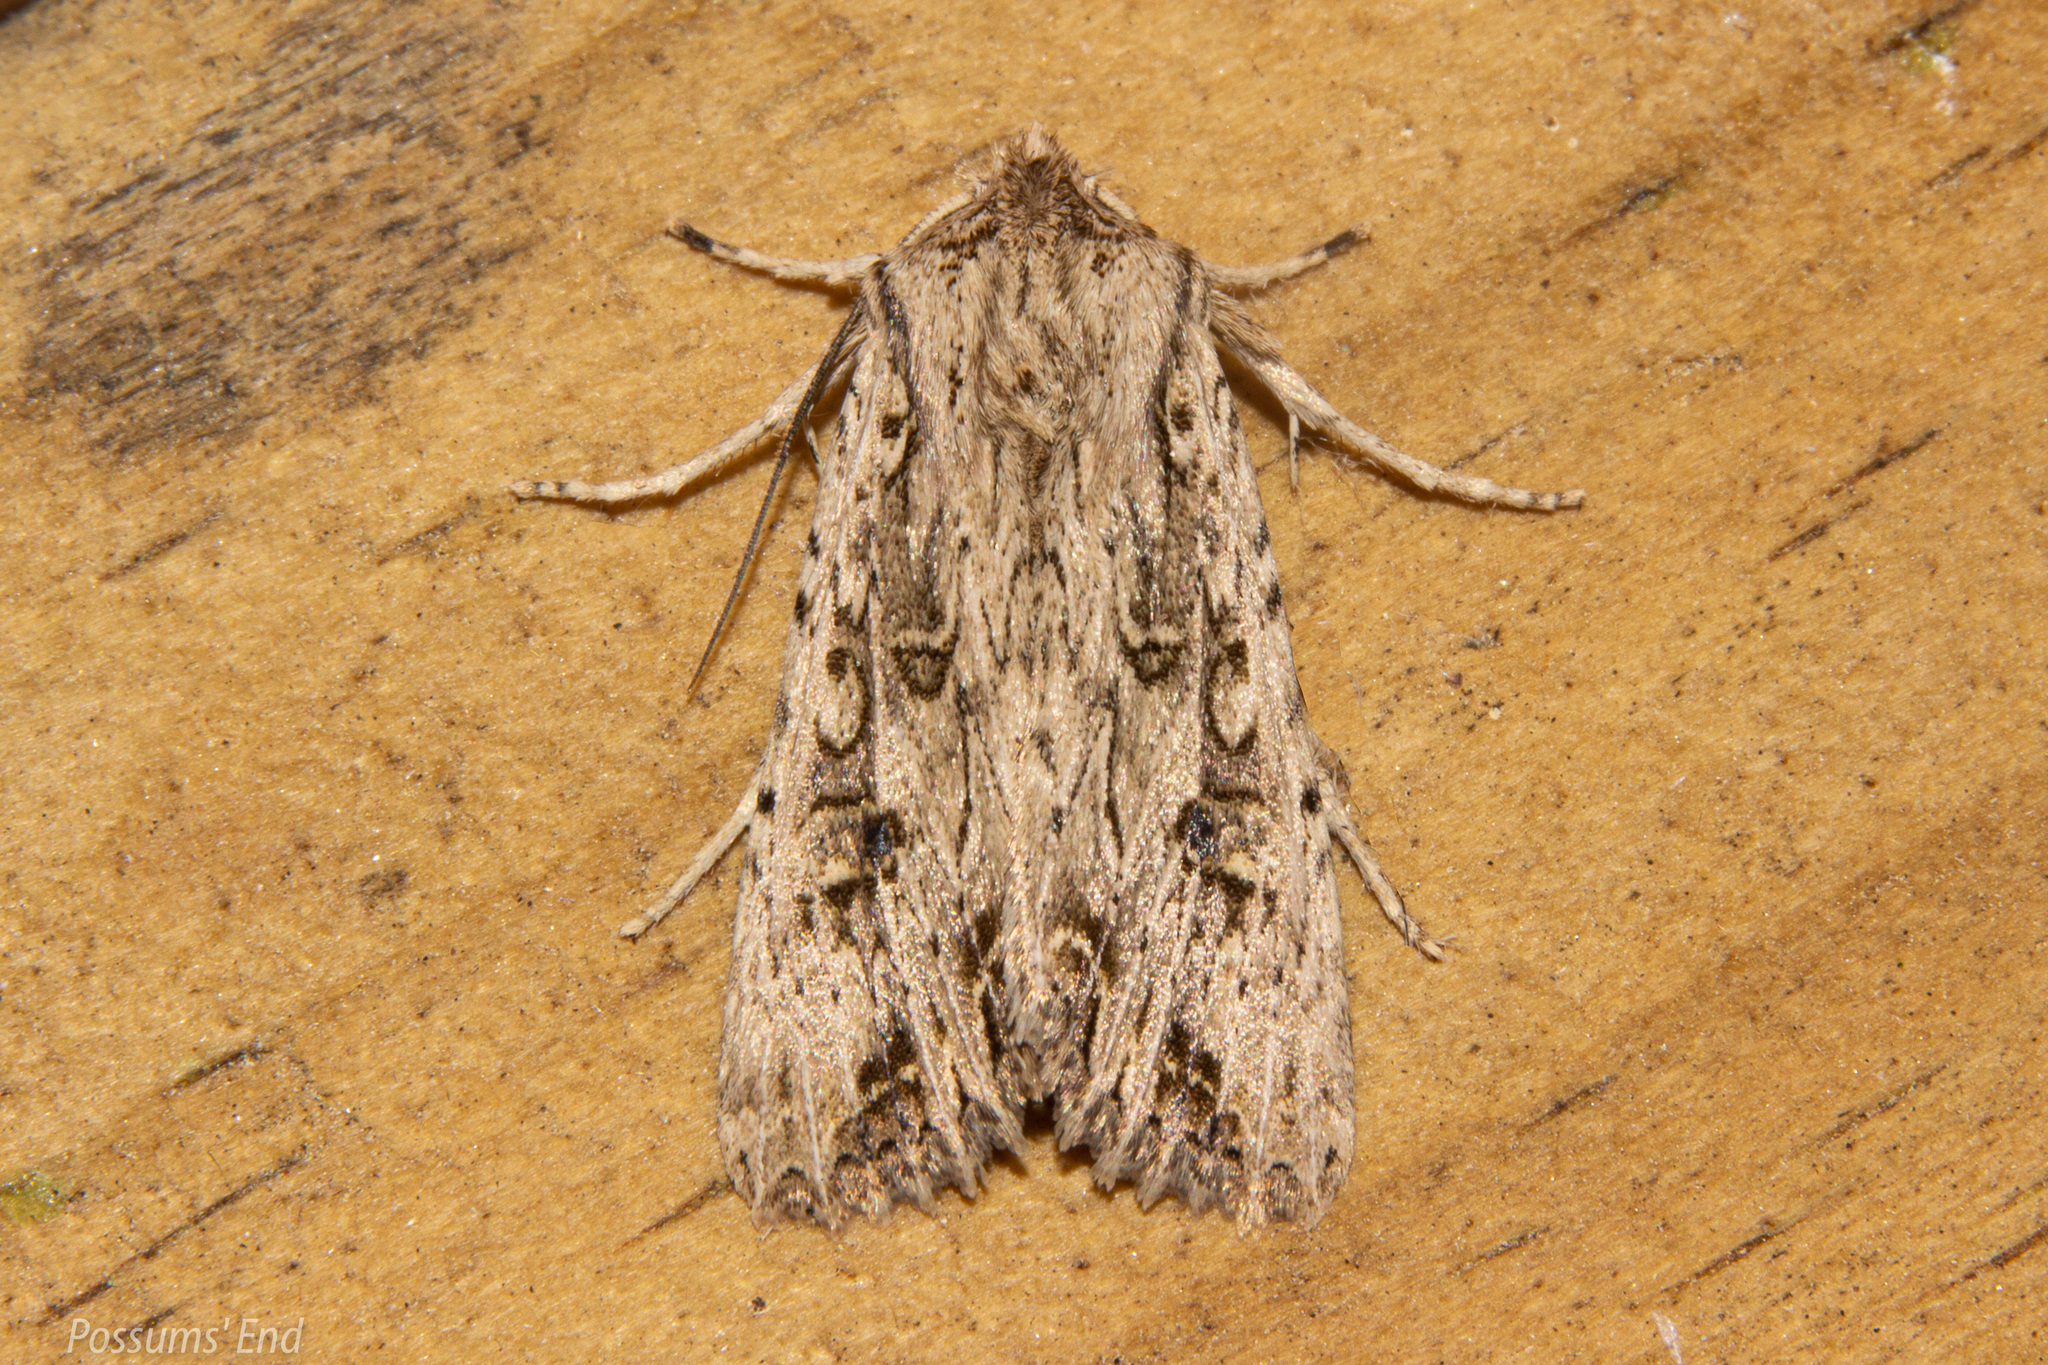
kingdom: Animalia
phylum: Arthropoda
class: Insecta
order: Lepidoptera
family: Noctuidae
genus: Ichneutica
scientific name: Ichneutica lignana
